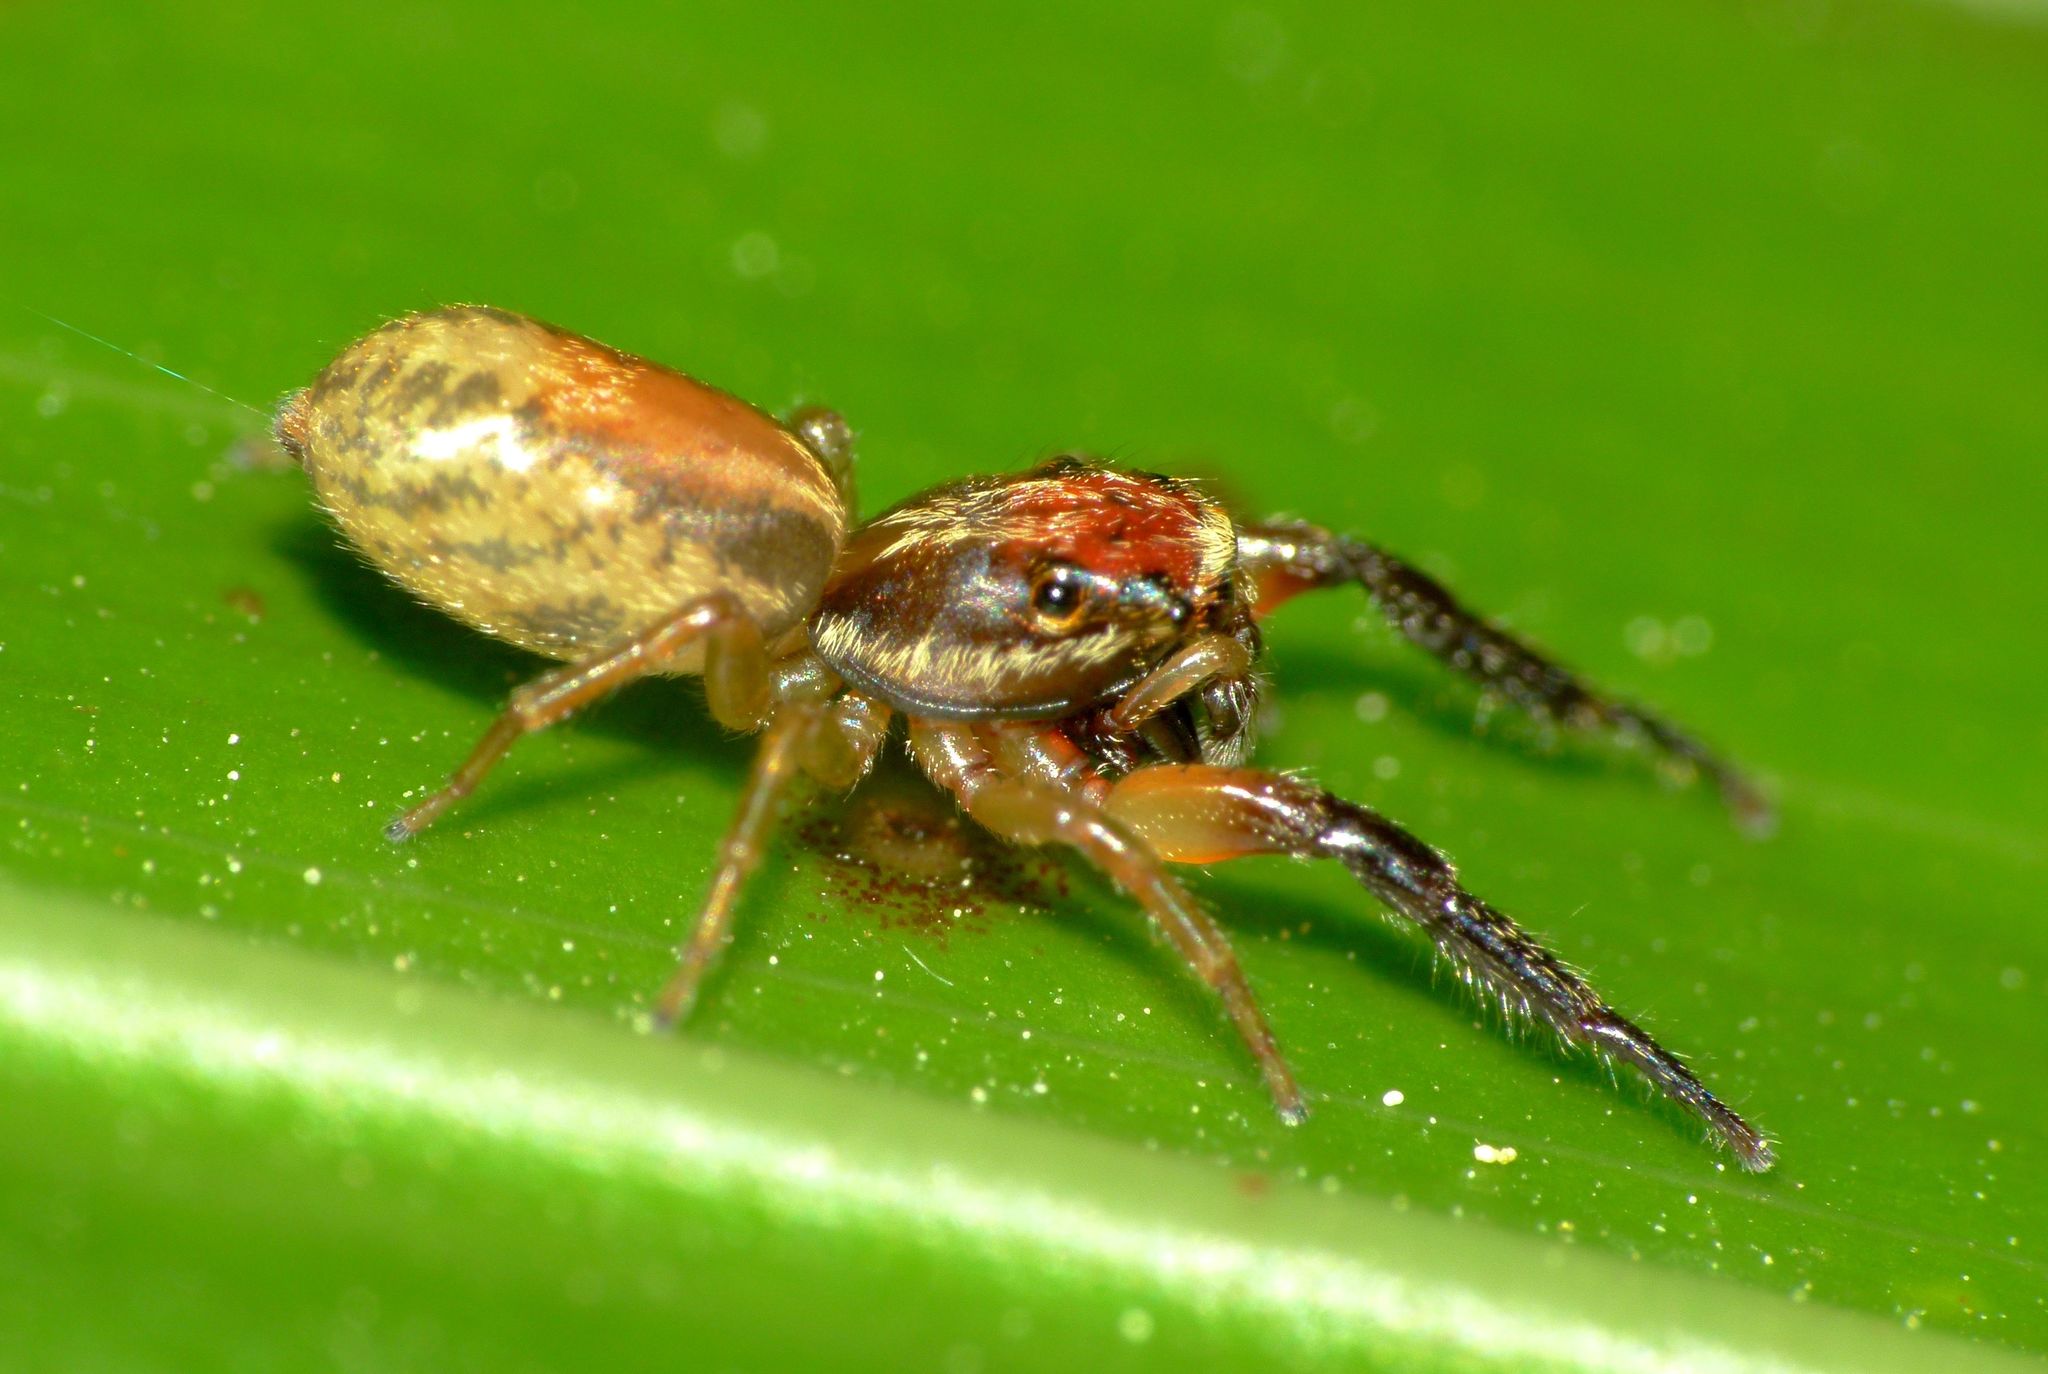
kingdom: Animalia
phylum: Arthropoda
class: Arachnida
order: Araneae
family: Salticidae
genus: Trite
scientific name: Trite mustilina
